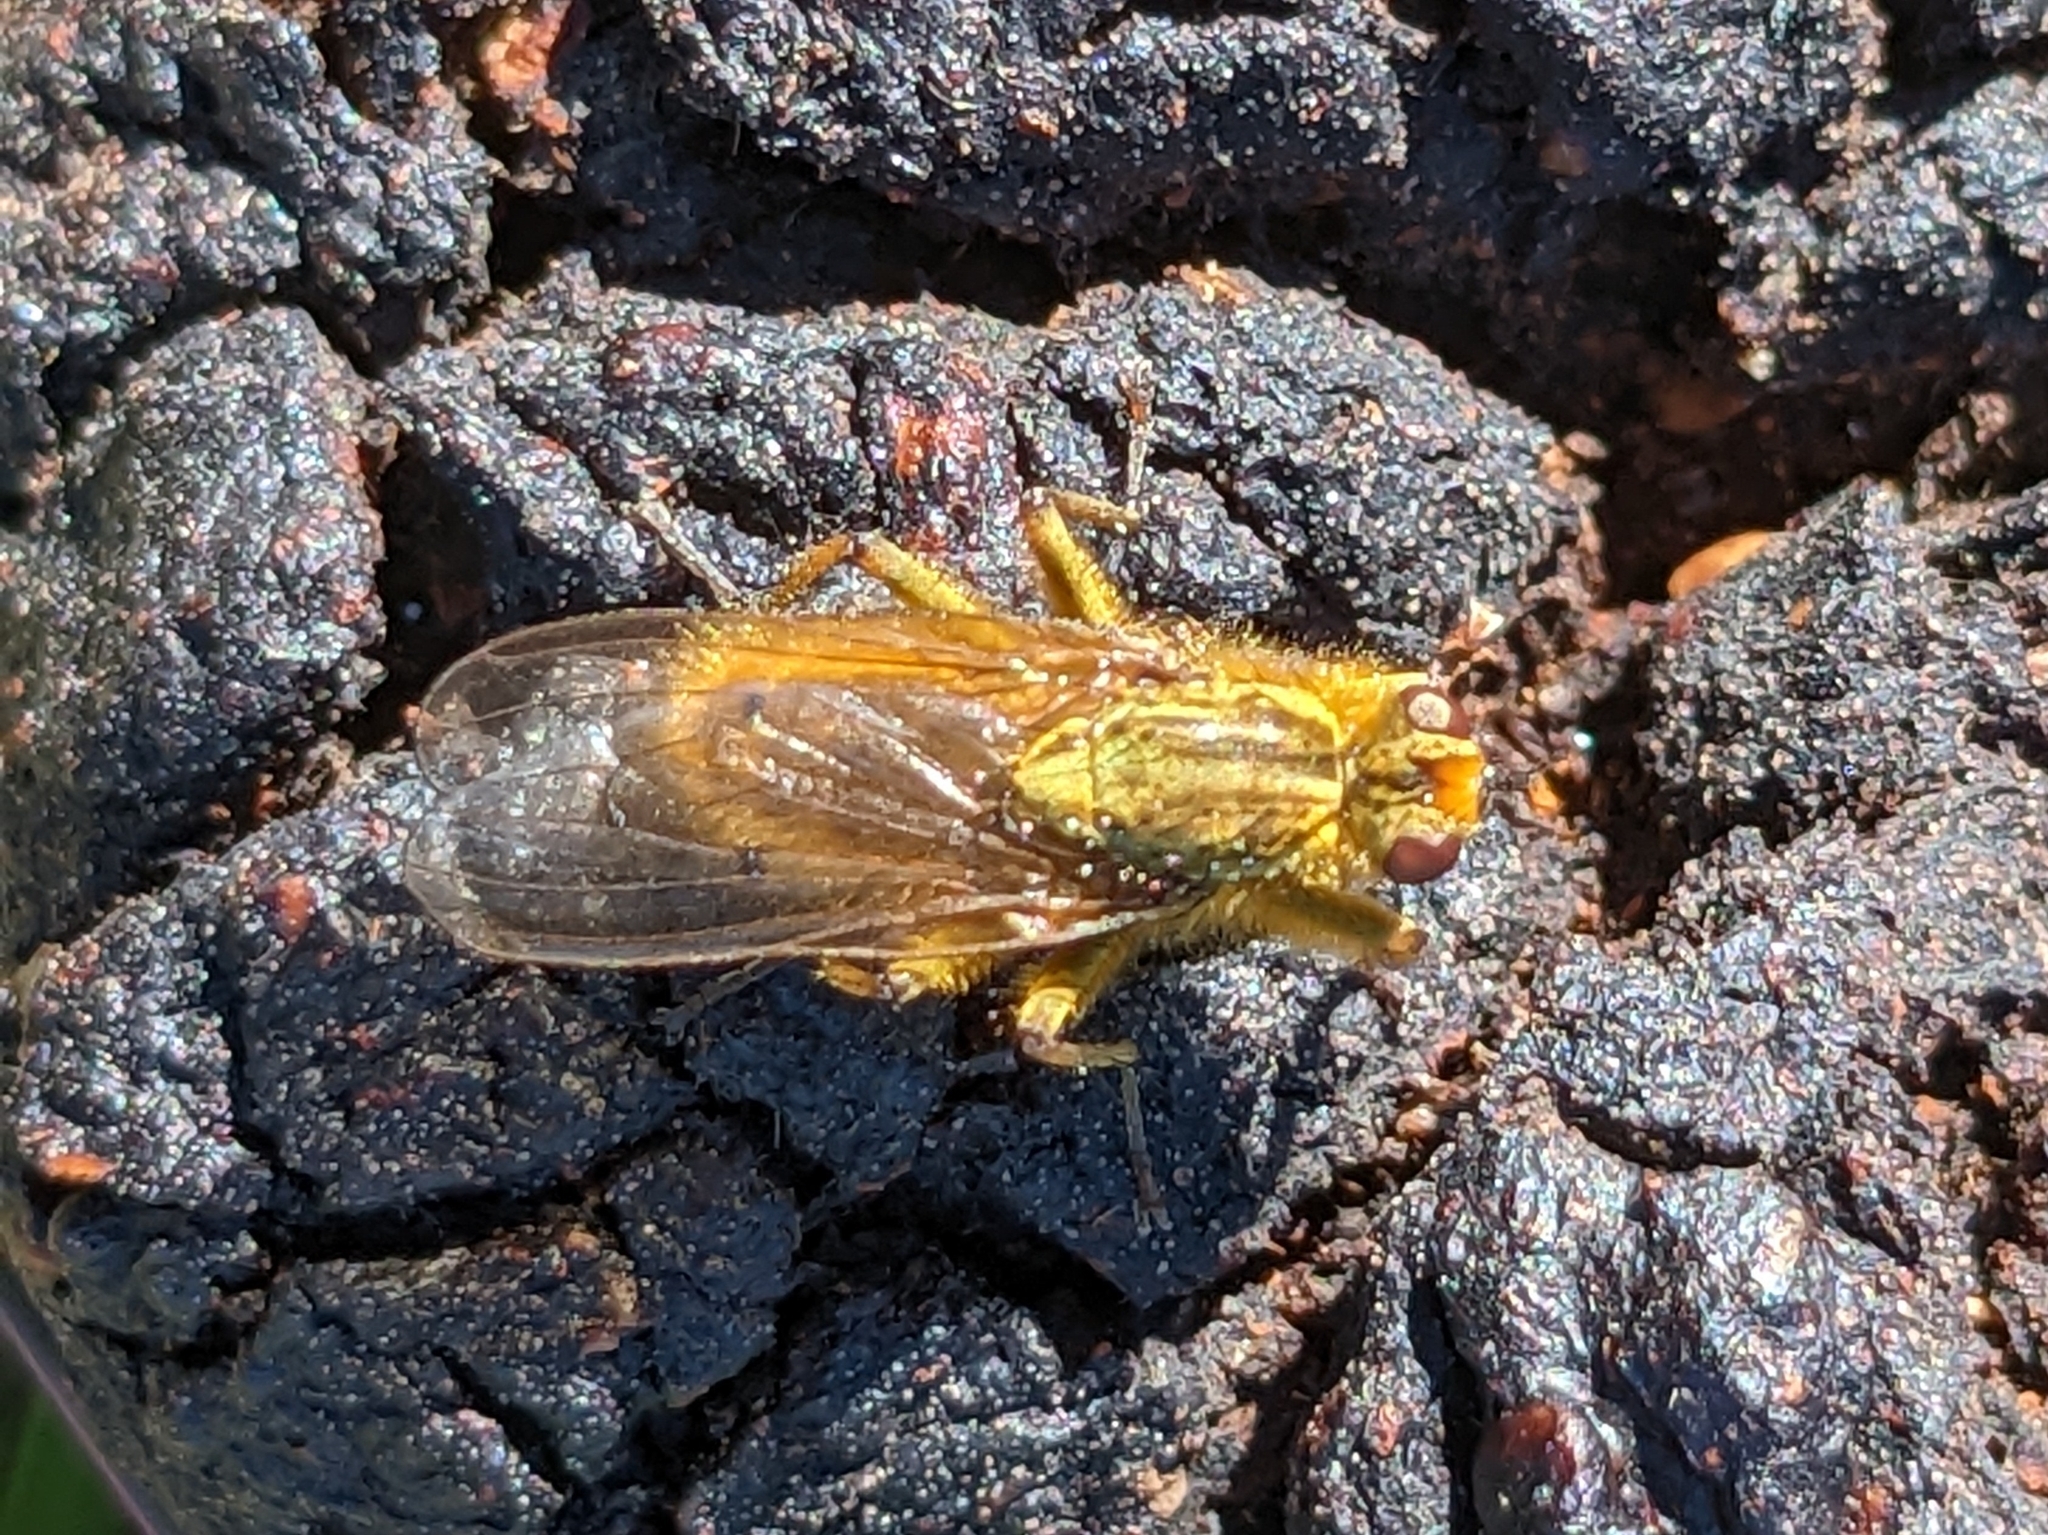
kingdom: Animalia
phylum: Arthropoda
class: Insecta
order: Diptera
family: Scathophagidae
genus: Scathophaga
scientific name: Scathophaga stercoraria
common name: Yellow dung fly
